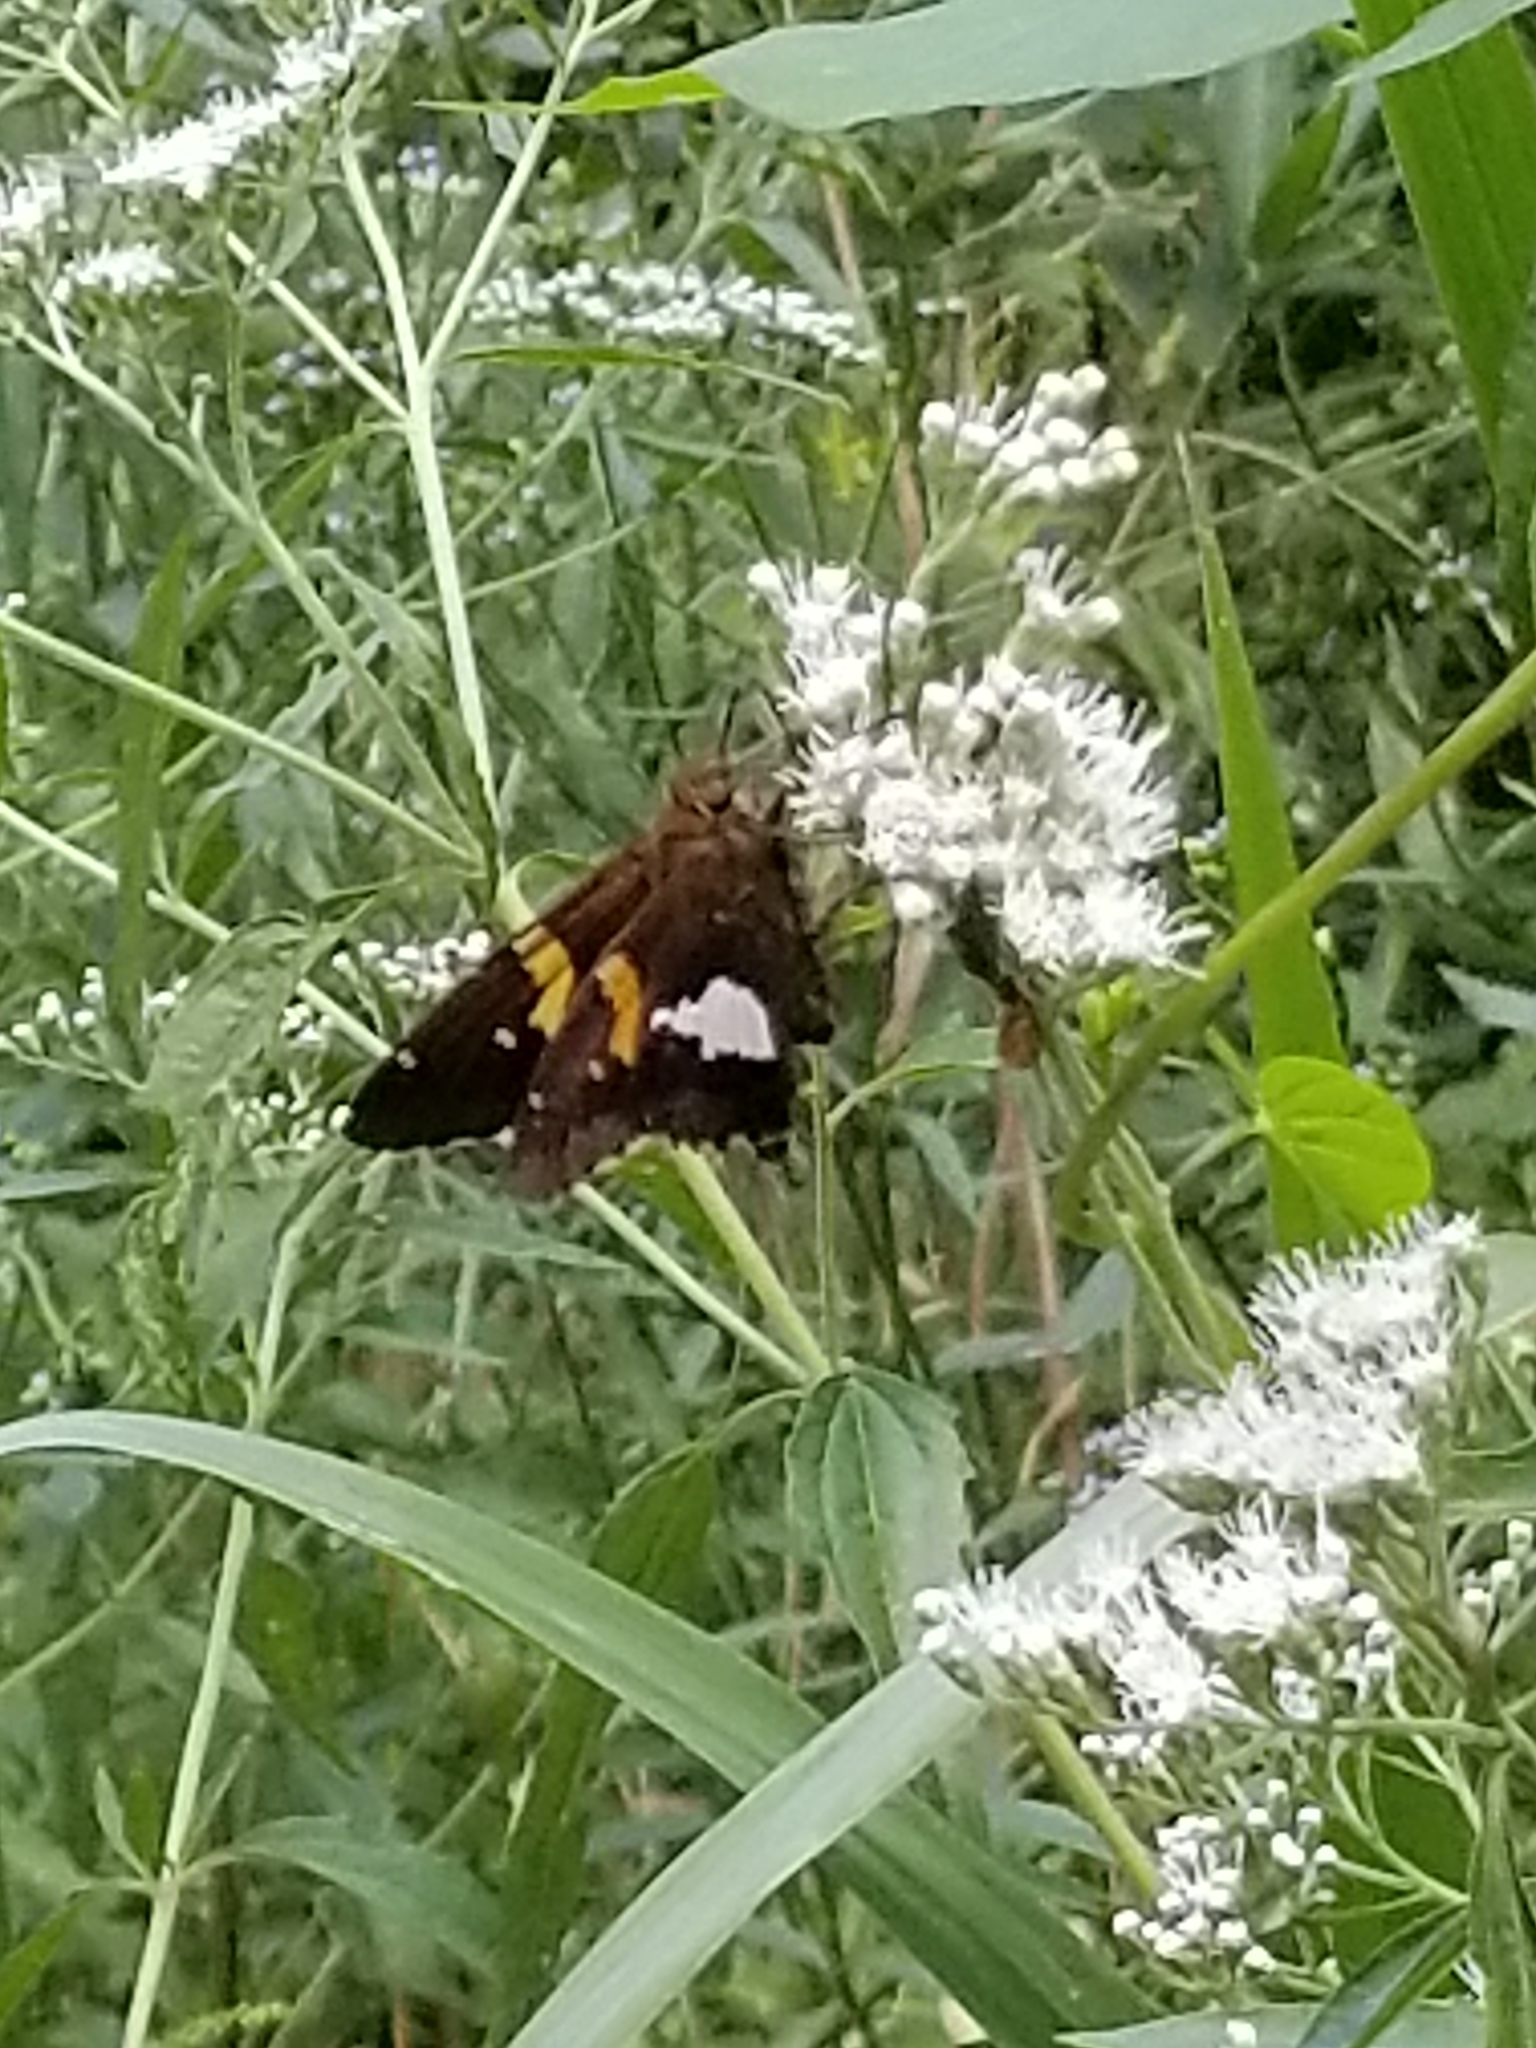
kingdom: Animalia
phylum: Arthropoda
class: Insecta
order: Lepidoptera
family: Hesperiidae
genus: Epargyreus
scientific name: Epargyreus clarus
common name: Silver-spotted skipper
